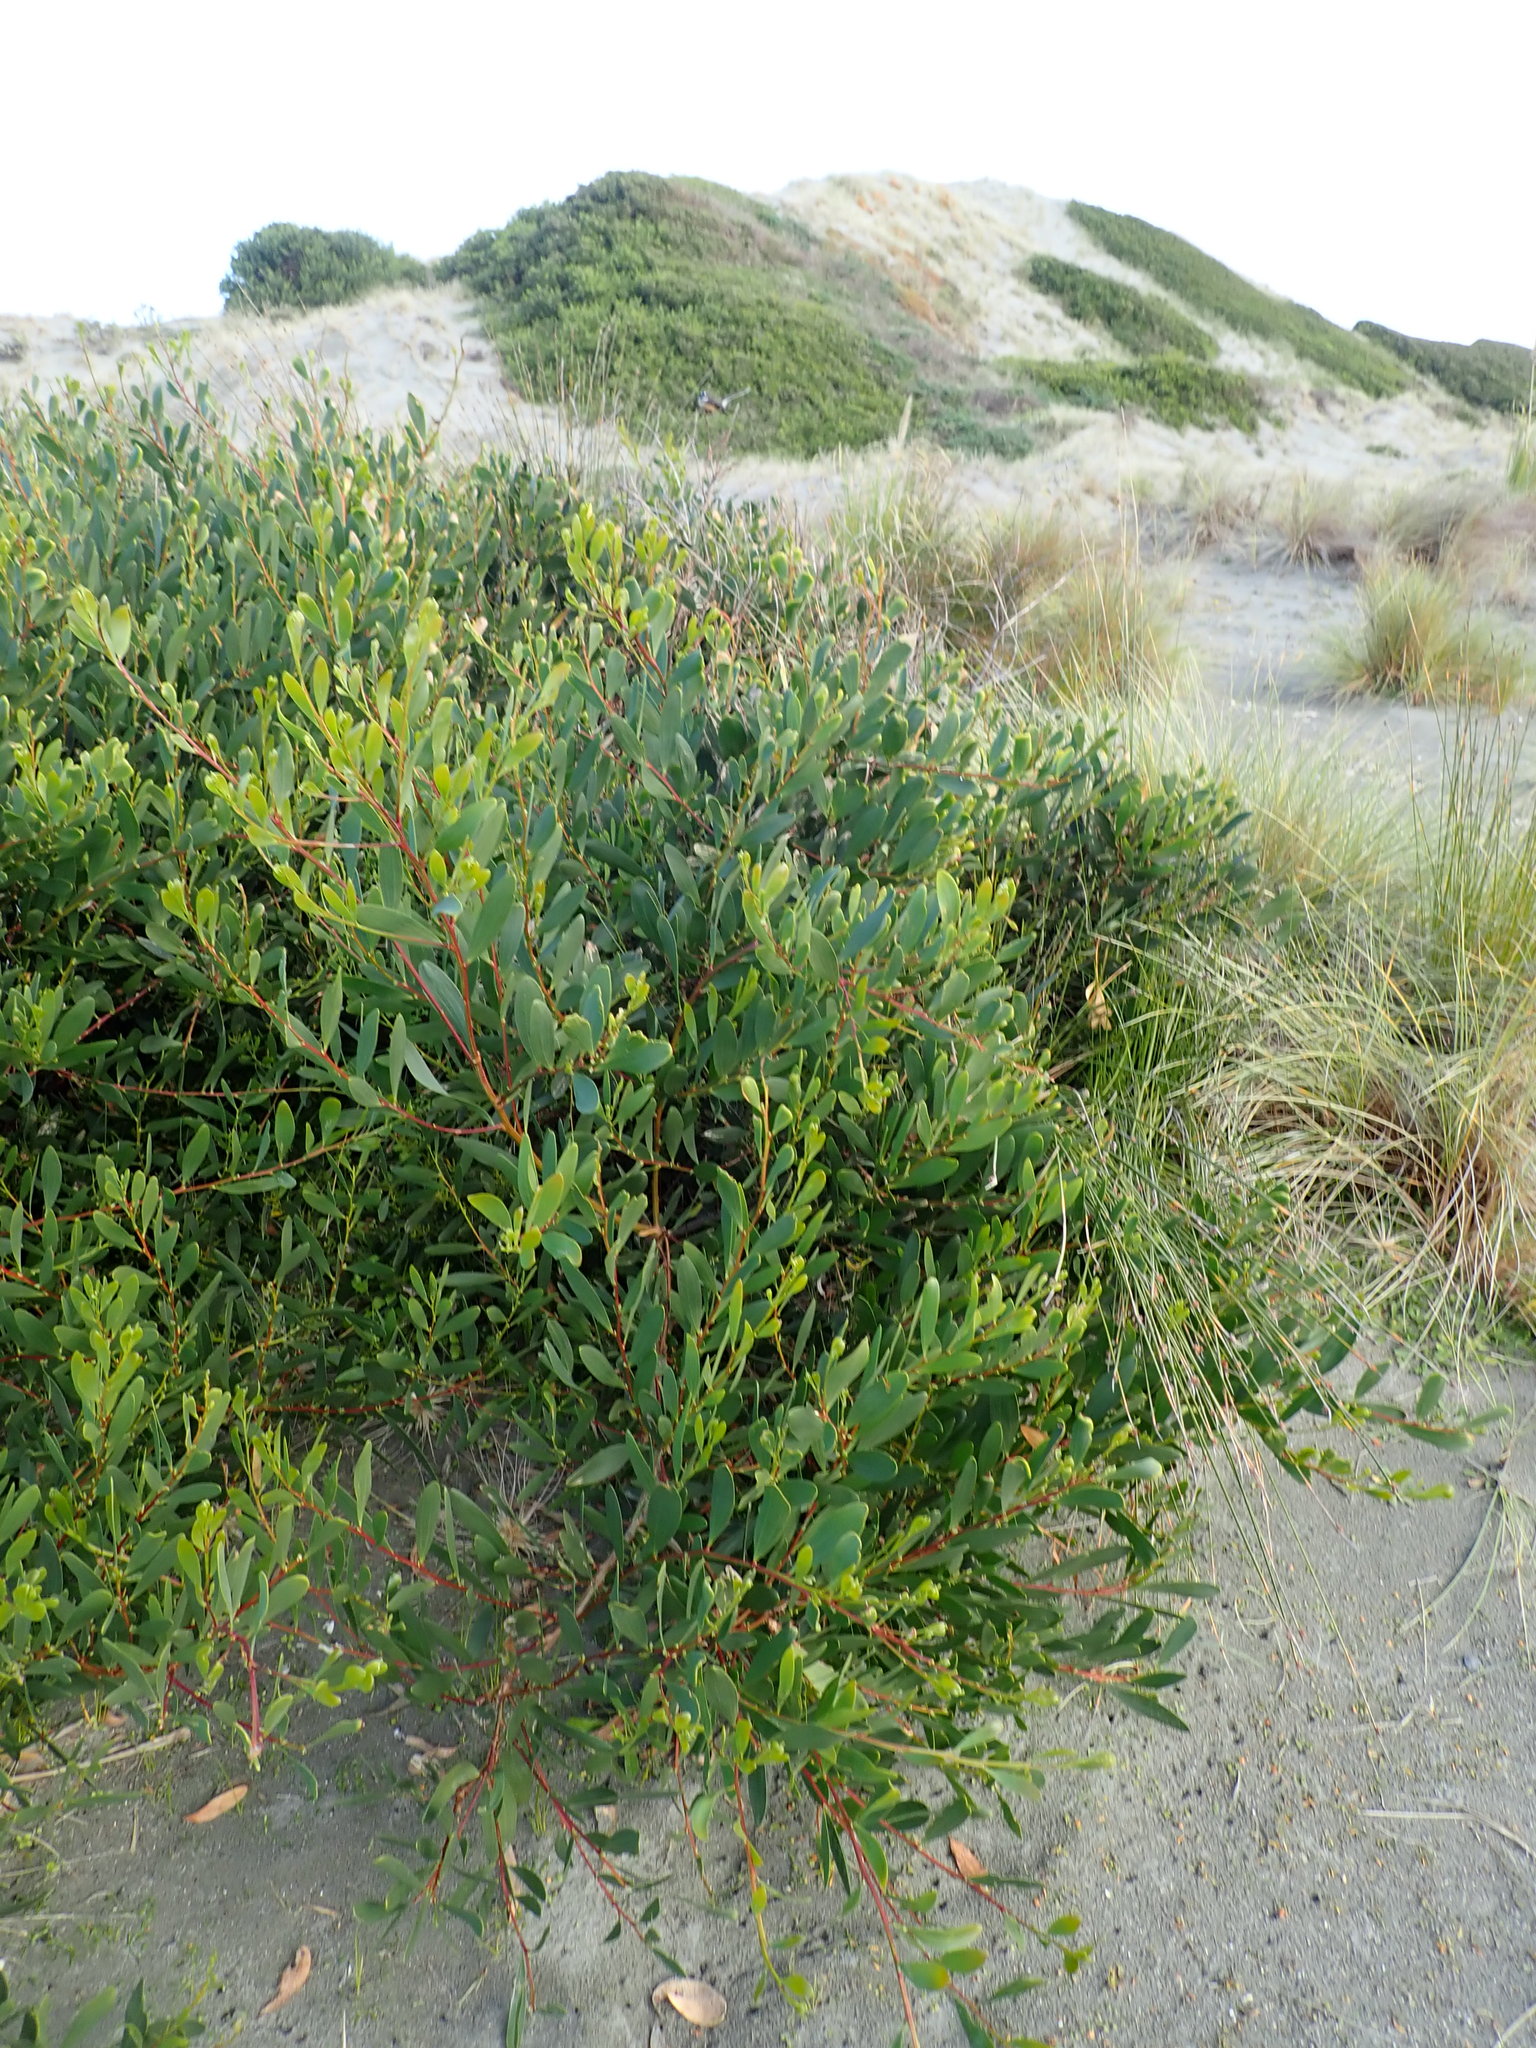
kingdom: Plantae
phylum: Tracheophyta
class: Magnoliopsida
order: Fabales
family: Fabaceae
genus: Acacia
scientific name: Acacia longifolia
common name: Sydney golden wattle
